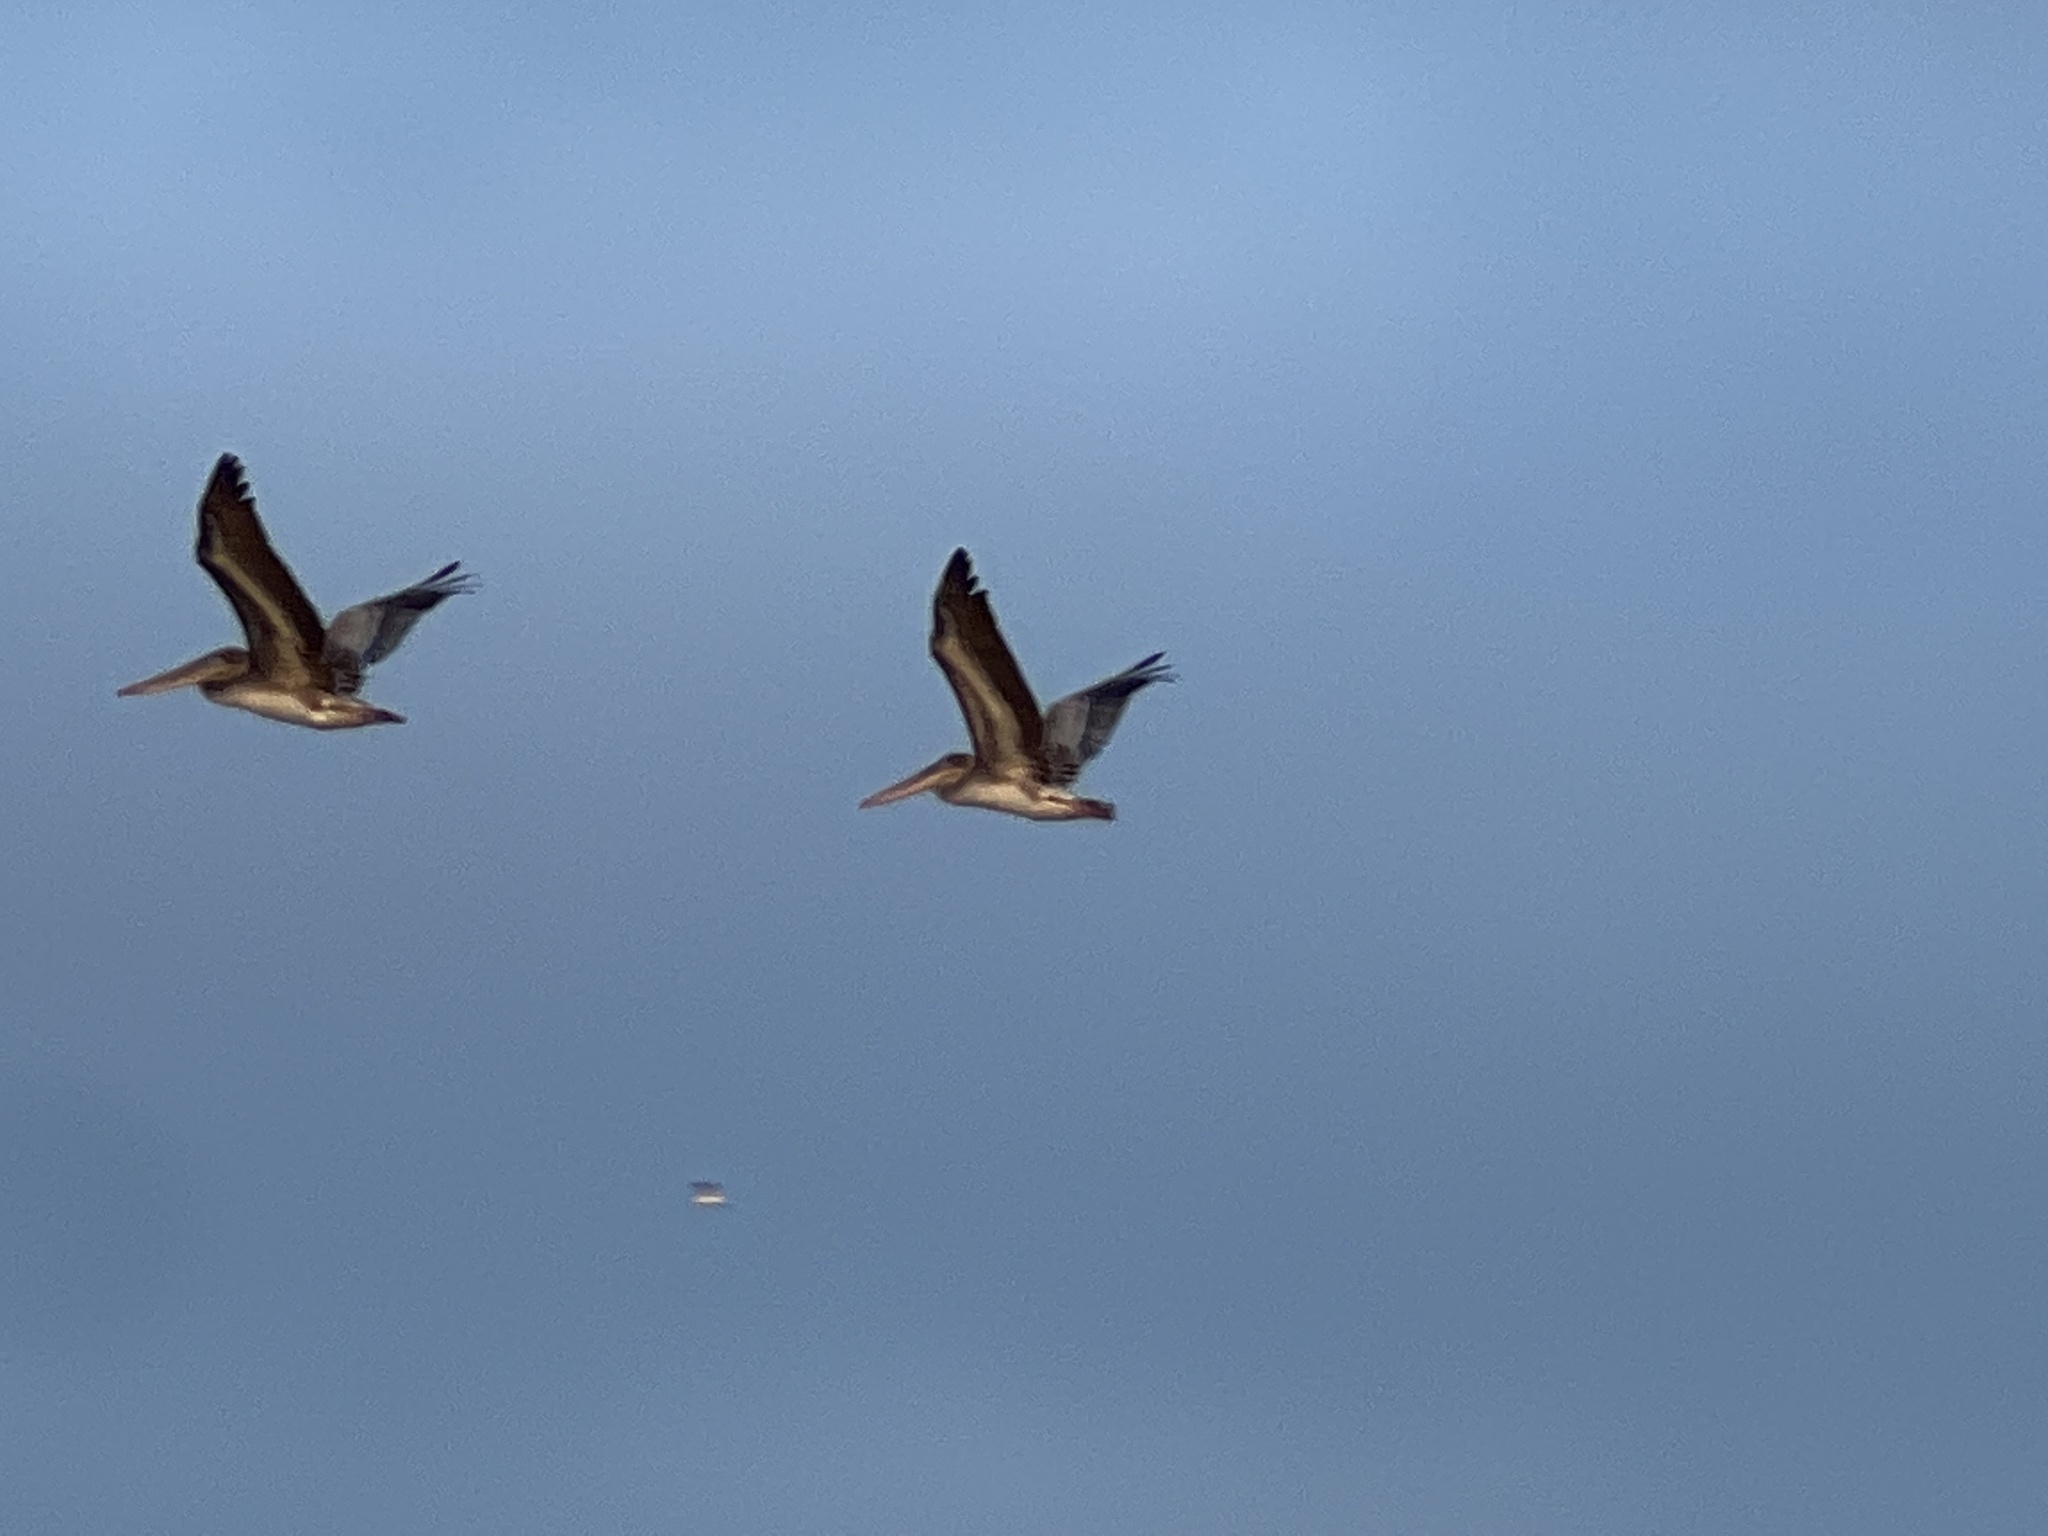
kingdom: Animalia
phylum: Chordata
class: Aves
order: Pelecaniformes
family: Pelecanidae
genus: Pelecanus
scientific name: Pelecanus occidentalis
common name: Brown pelican
